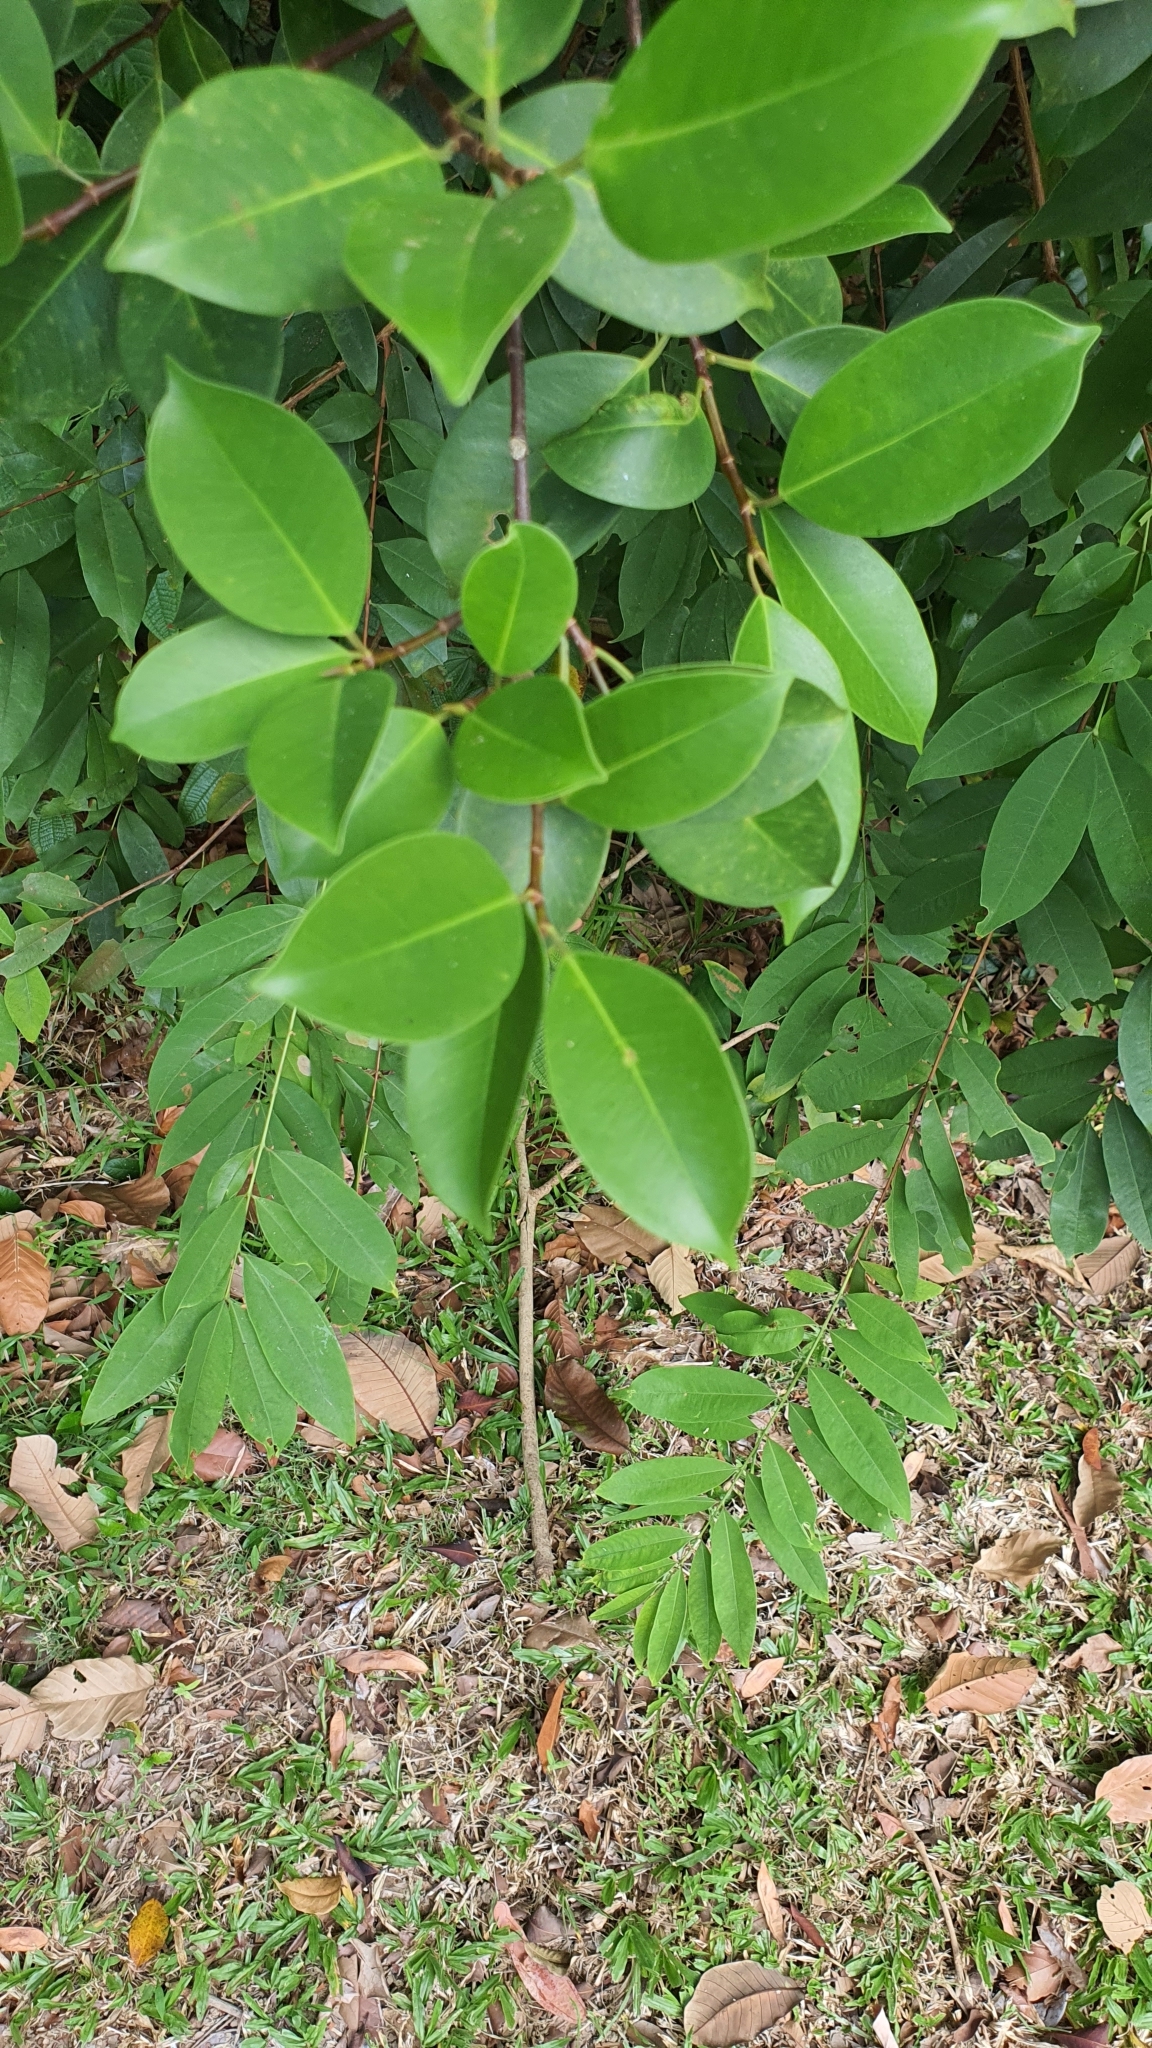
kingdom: Plantae
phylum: Tracheophyta
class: Magnoliopsida
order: Rosales
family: Moraceae
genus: Ficus
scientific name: Ficus microcarpa
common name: Chinese banyan
